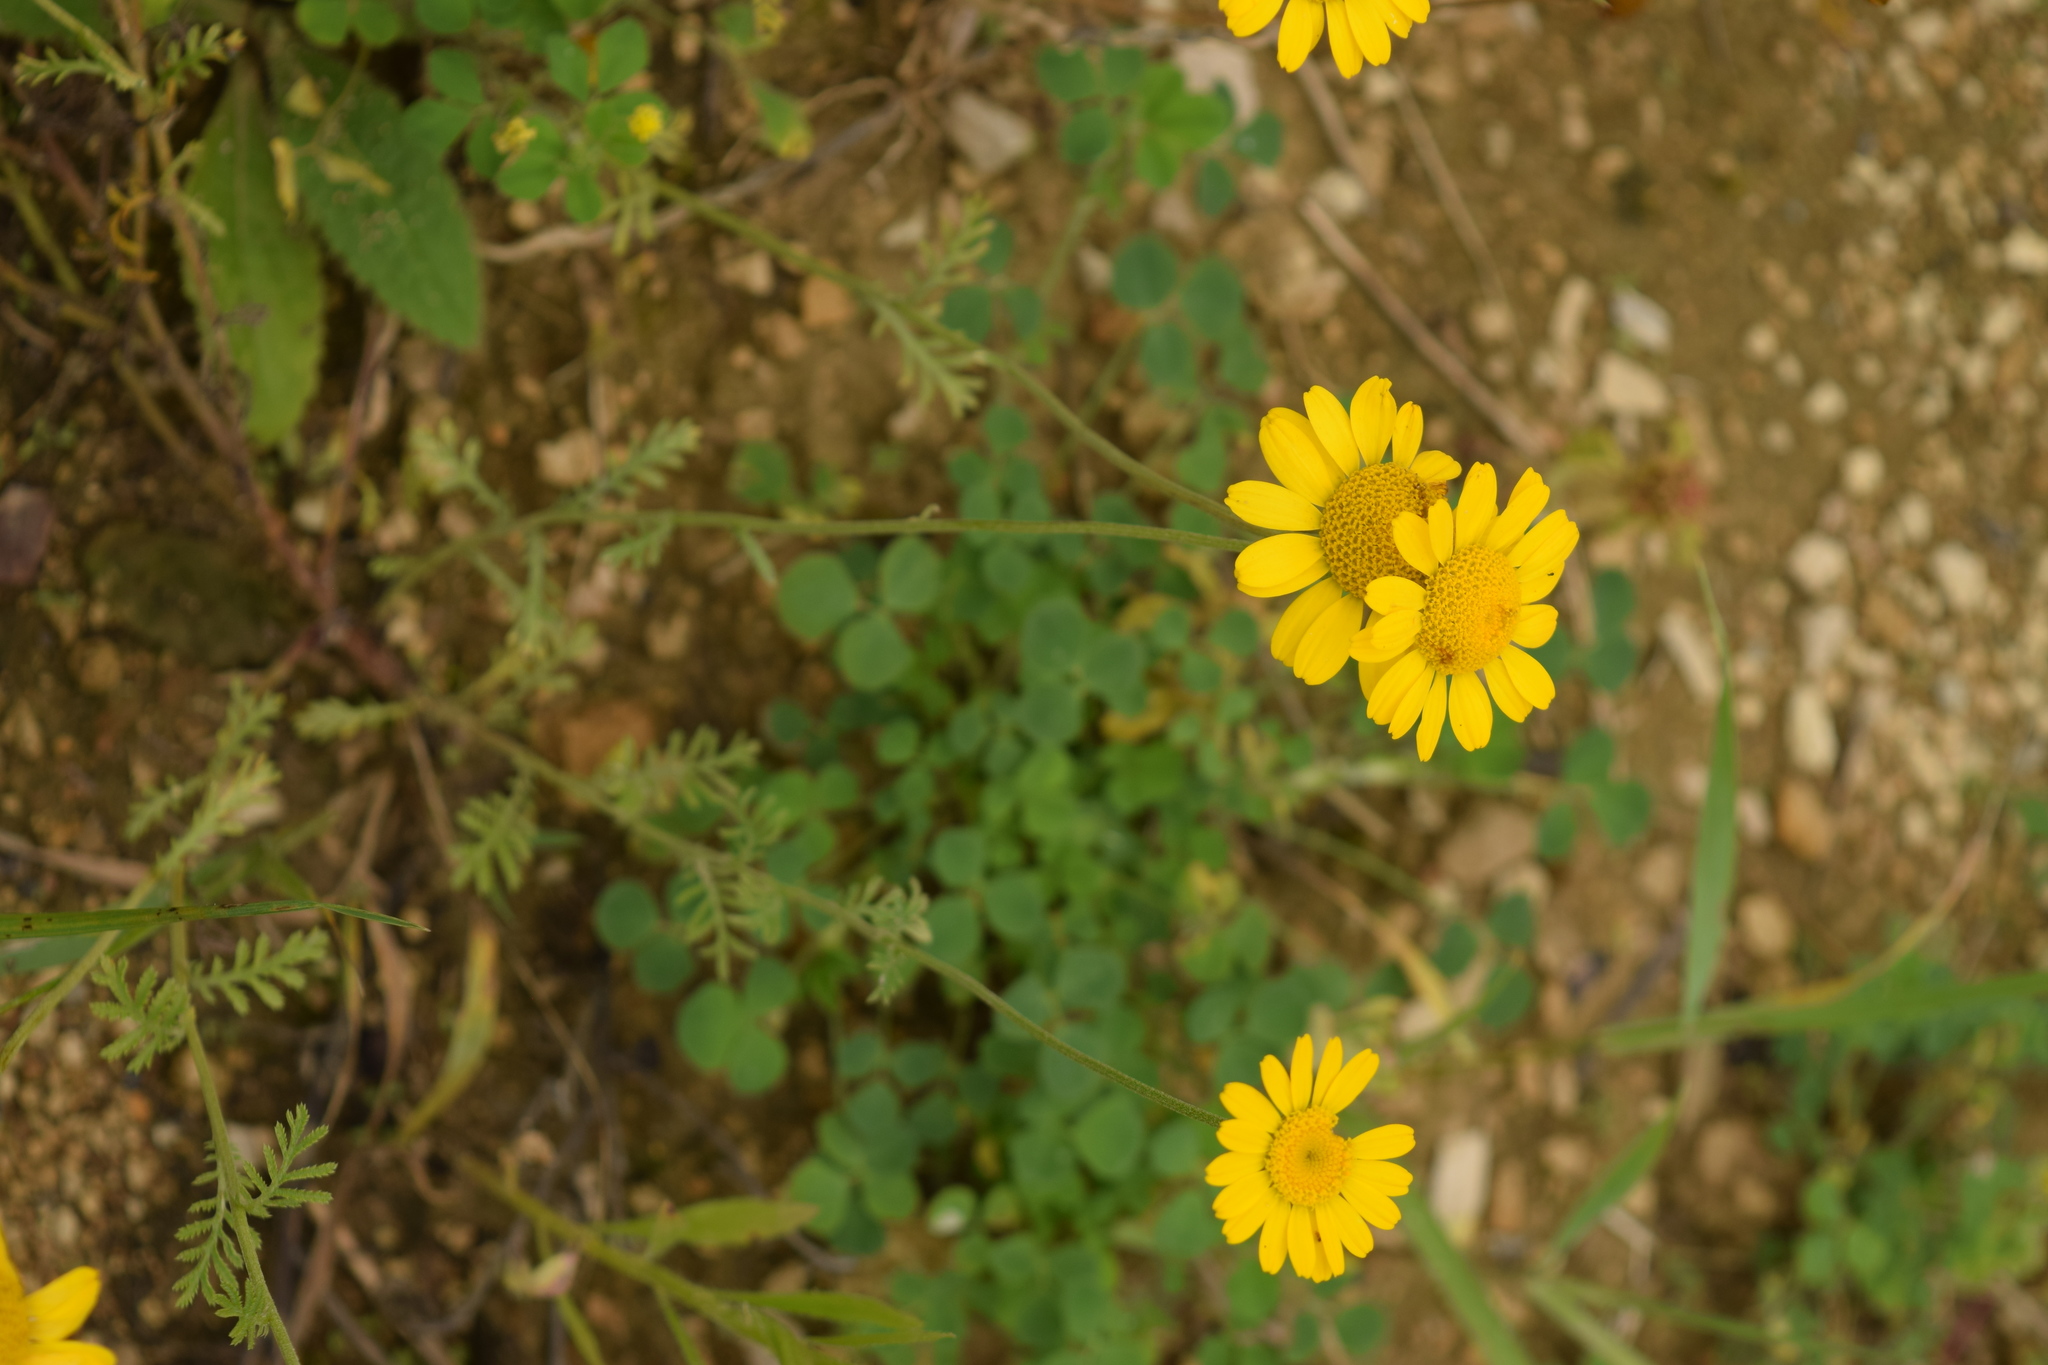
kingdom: Plantae
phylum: Tracheophyta
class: Magnoliopsida
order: Asterales
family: Asteraceae
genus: Cota
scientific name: Cota tinctoria
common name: Golden chamomile
